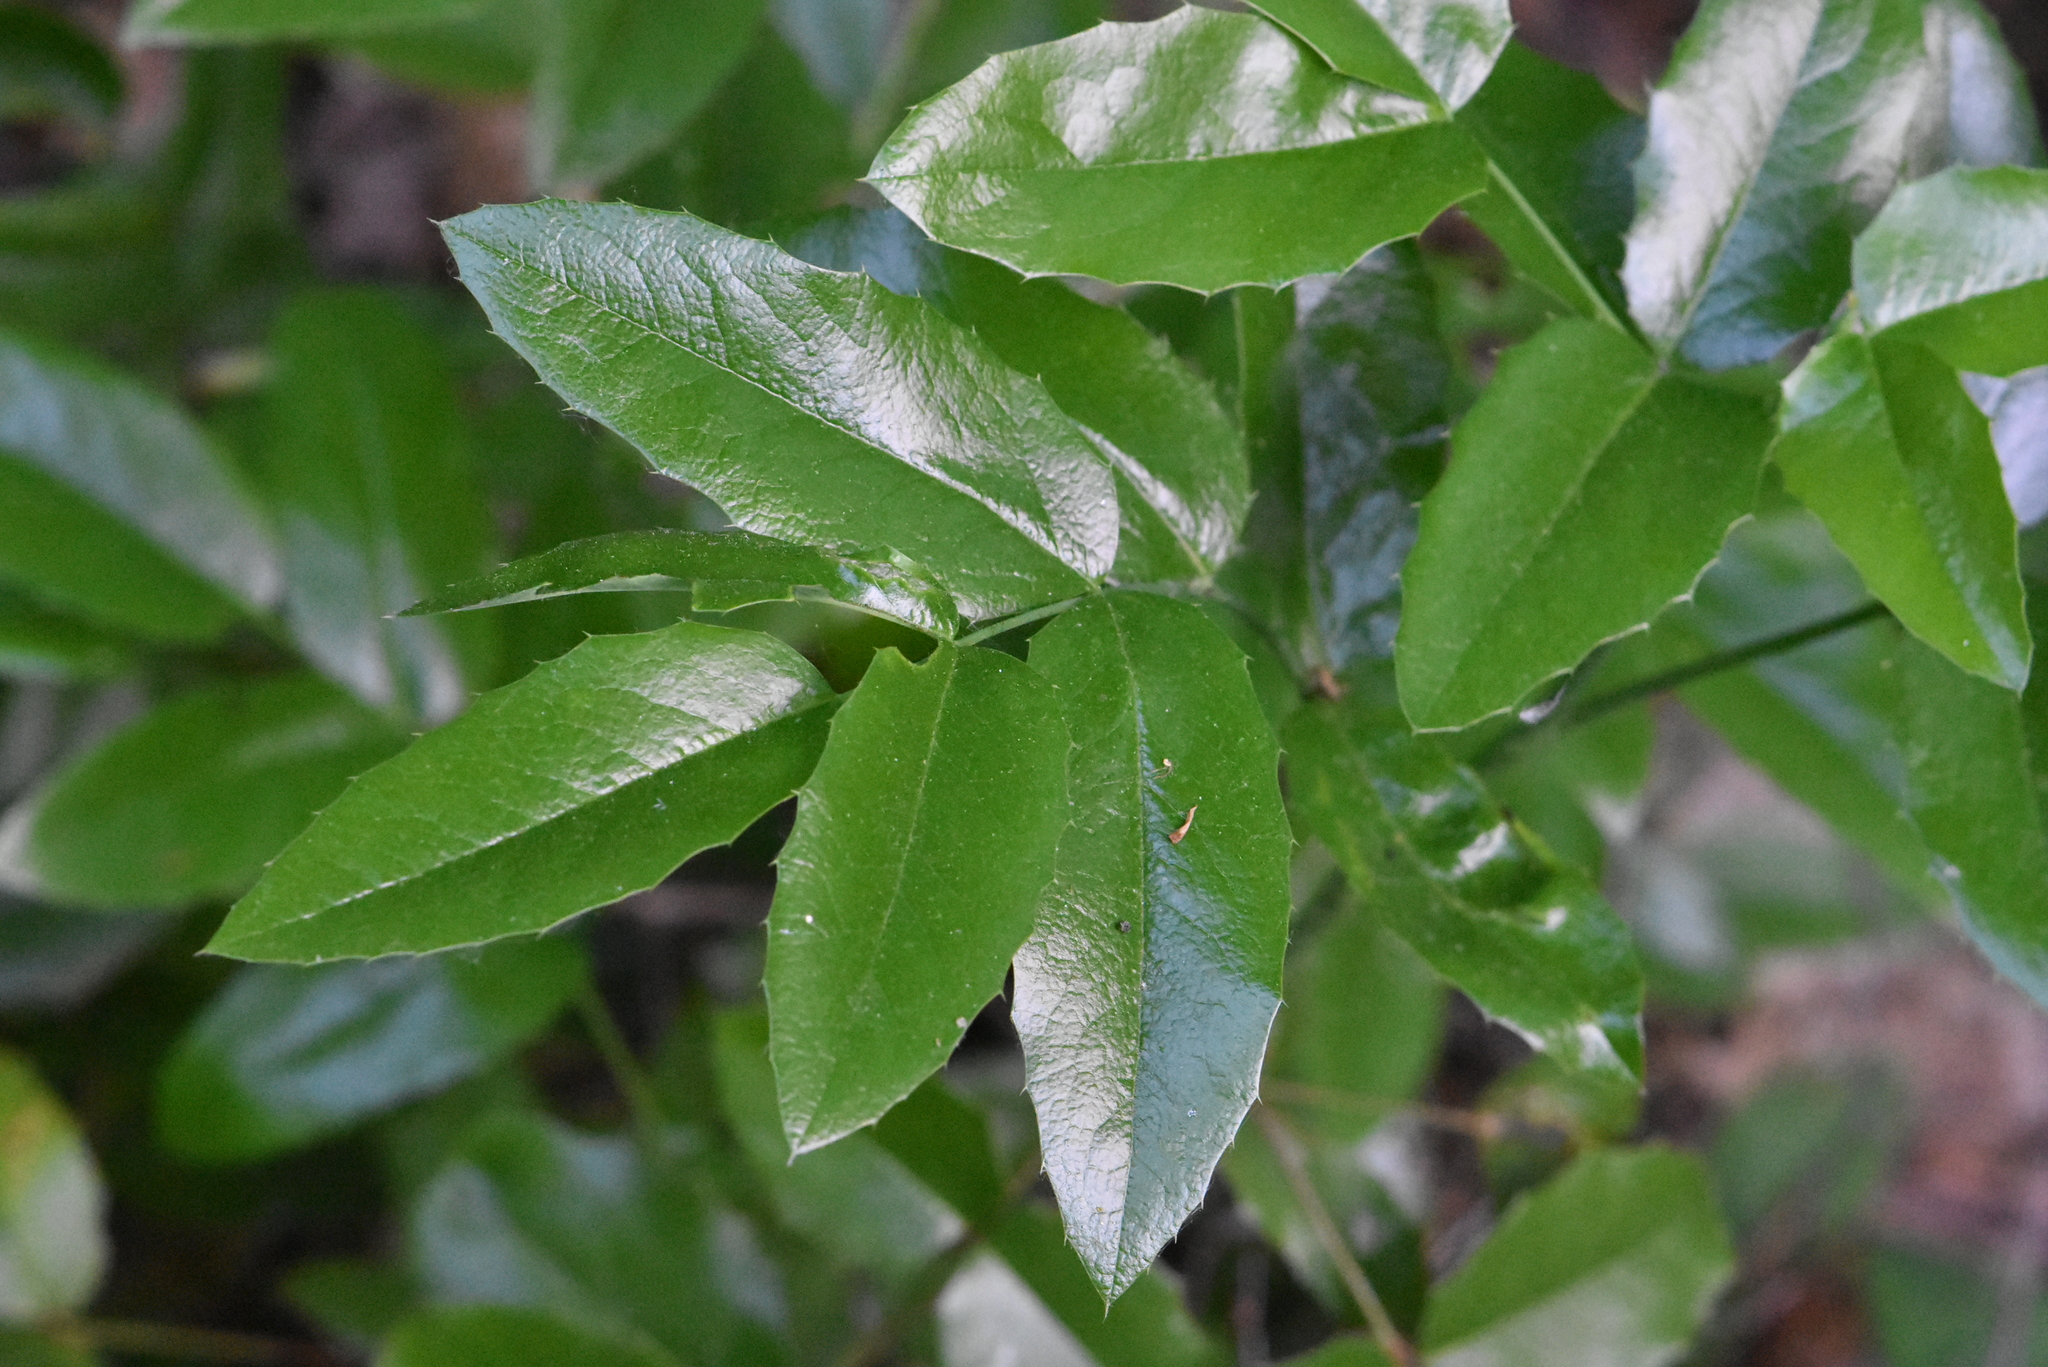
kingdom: Plantae
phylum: Tracheophyta
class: Magnoliopsida
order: Ranunculales
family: Berberidaceae
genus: Mahonia
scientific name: Mahonia aquifolium
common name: Oregon-grape
